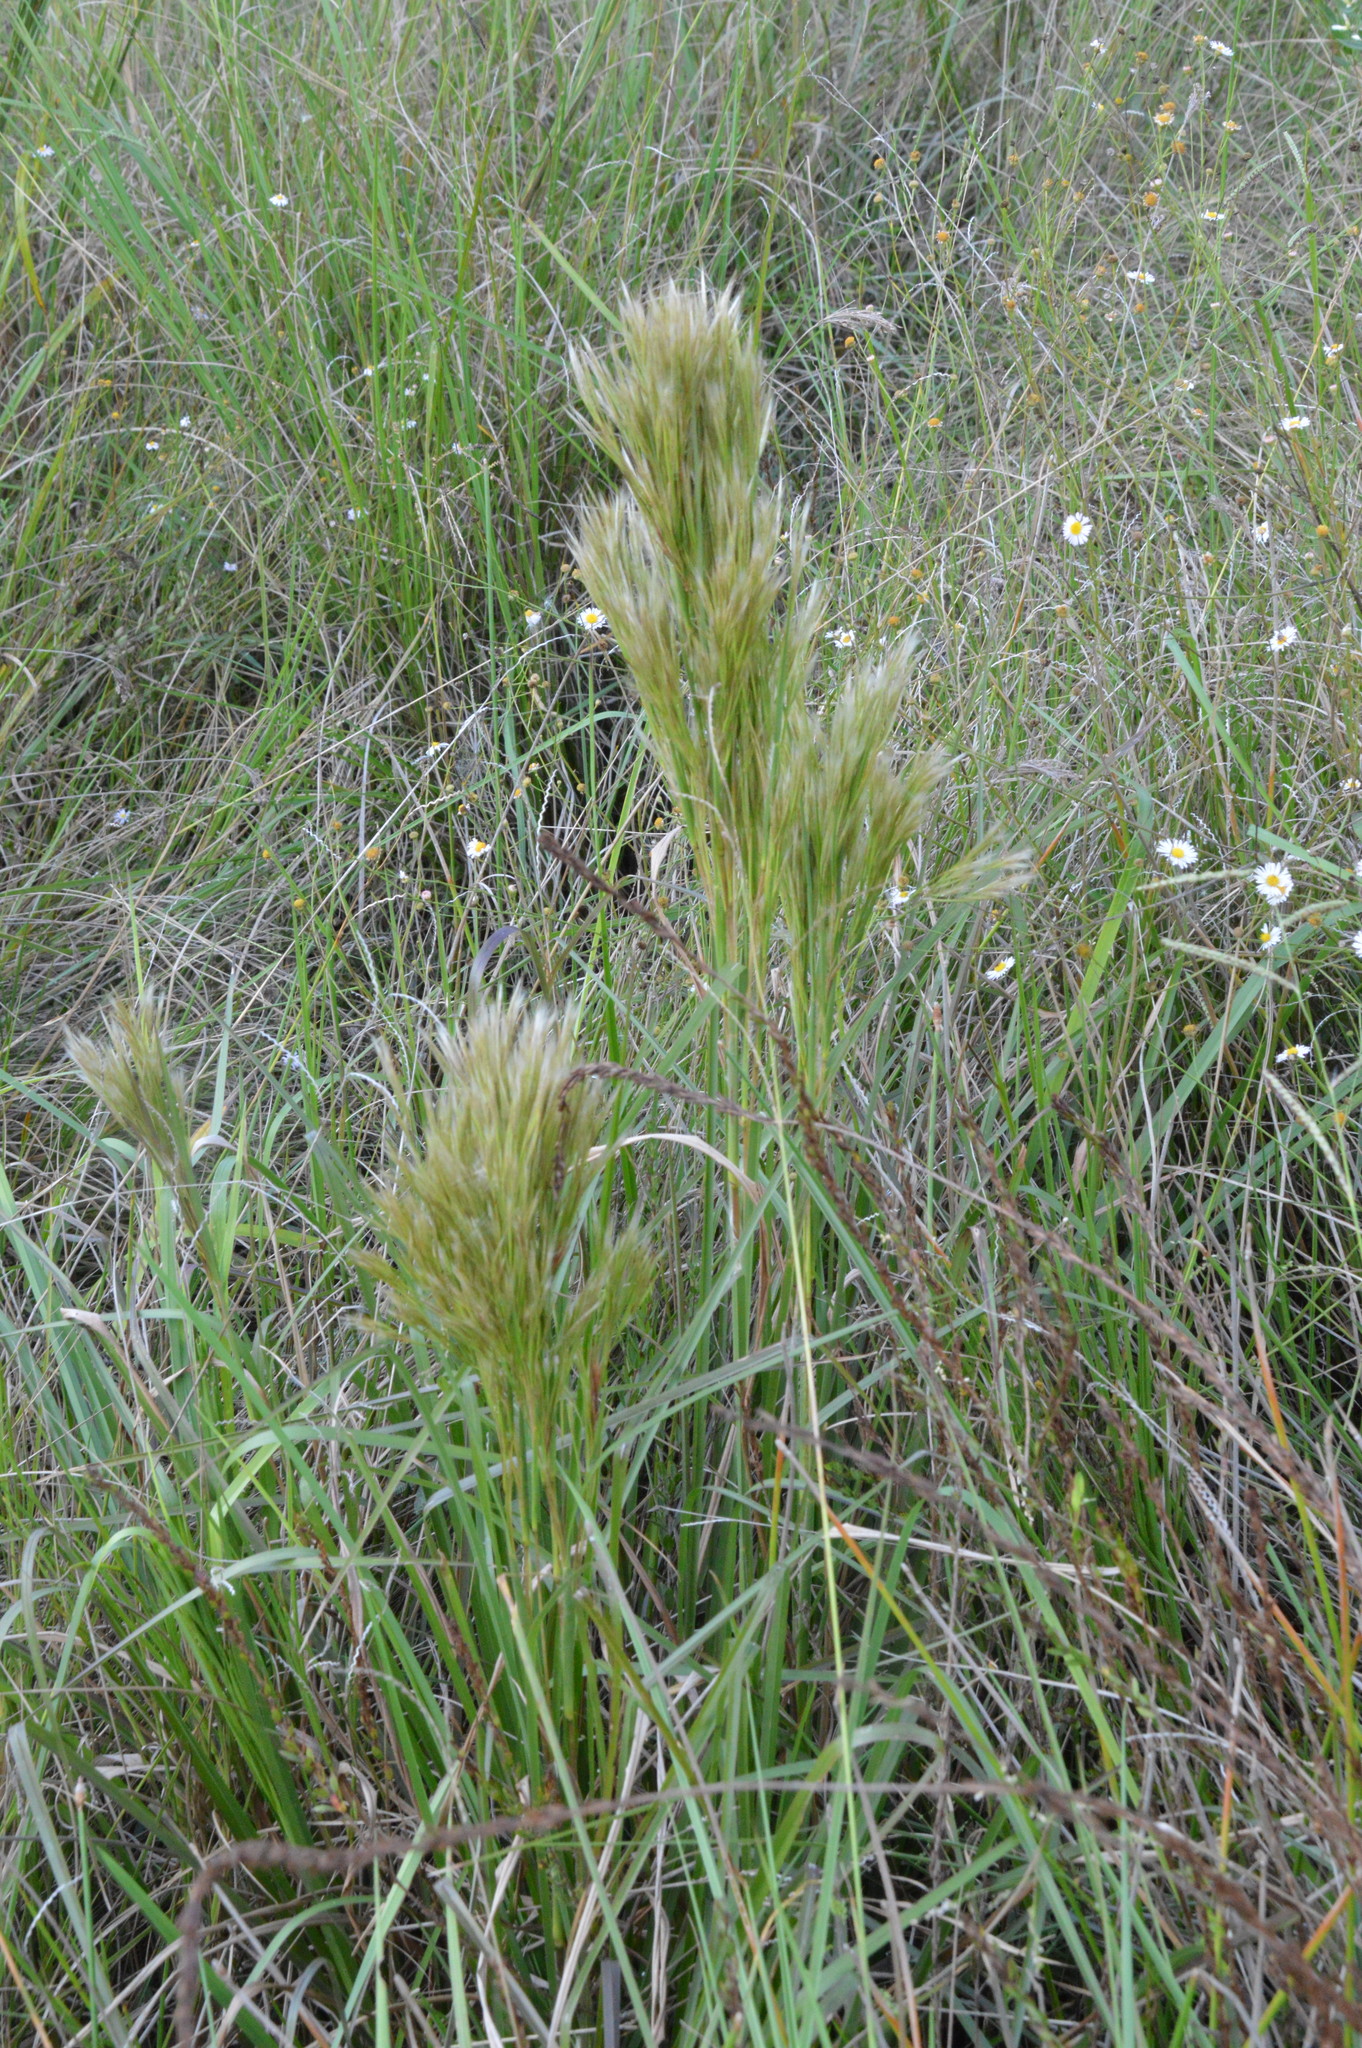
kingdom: Plantae
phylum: Tracheophyta
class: Liliopsida
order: Poales
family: Poaceae
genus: Andropogon
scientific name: Andropogon tenuispatheus
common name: Bushy bluestem
